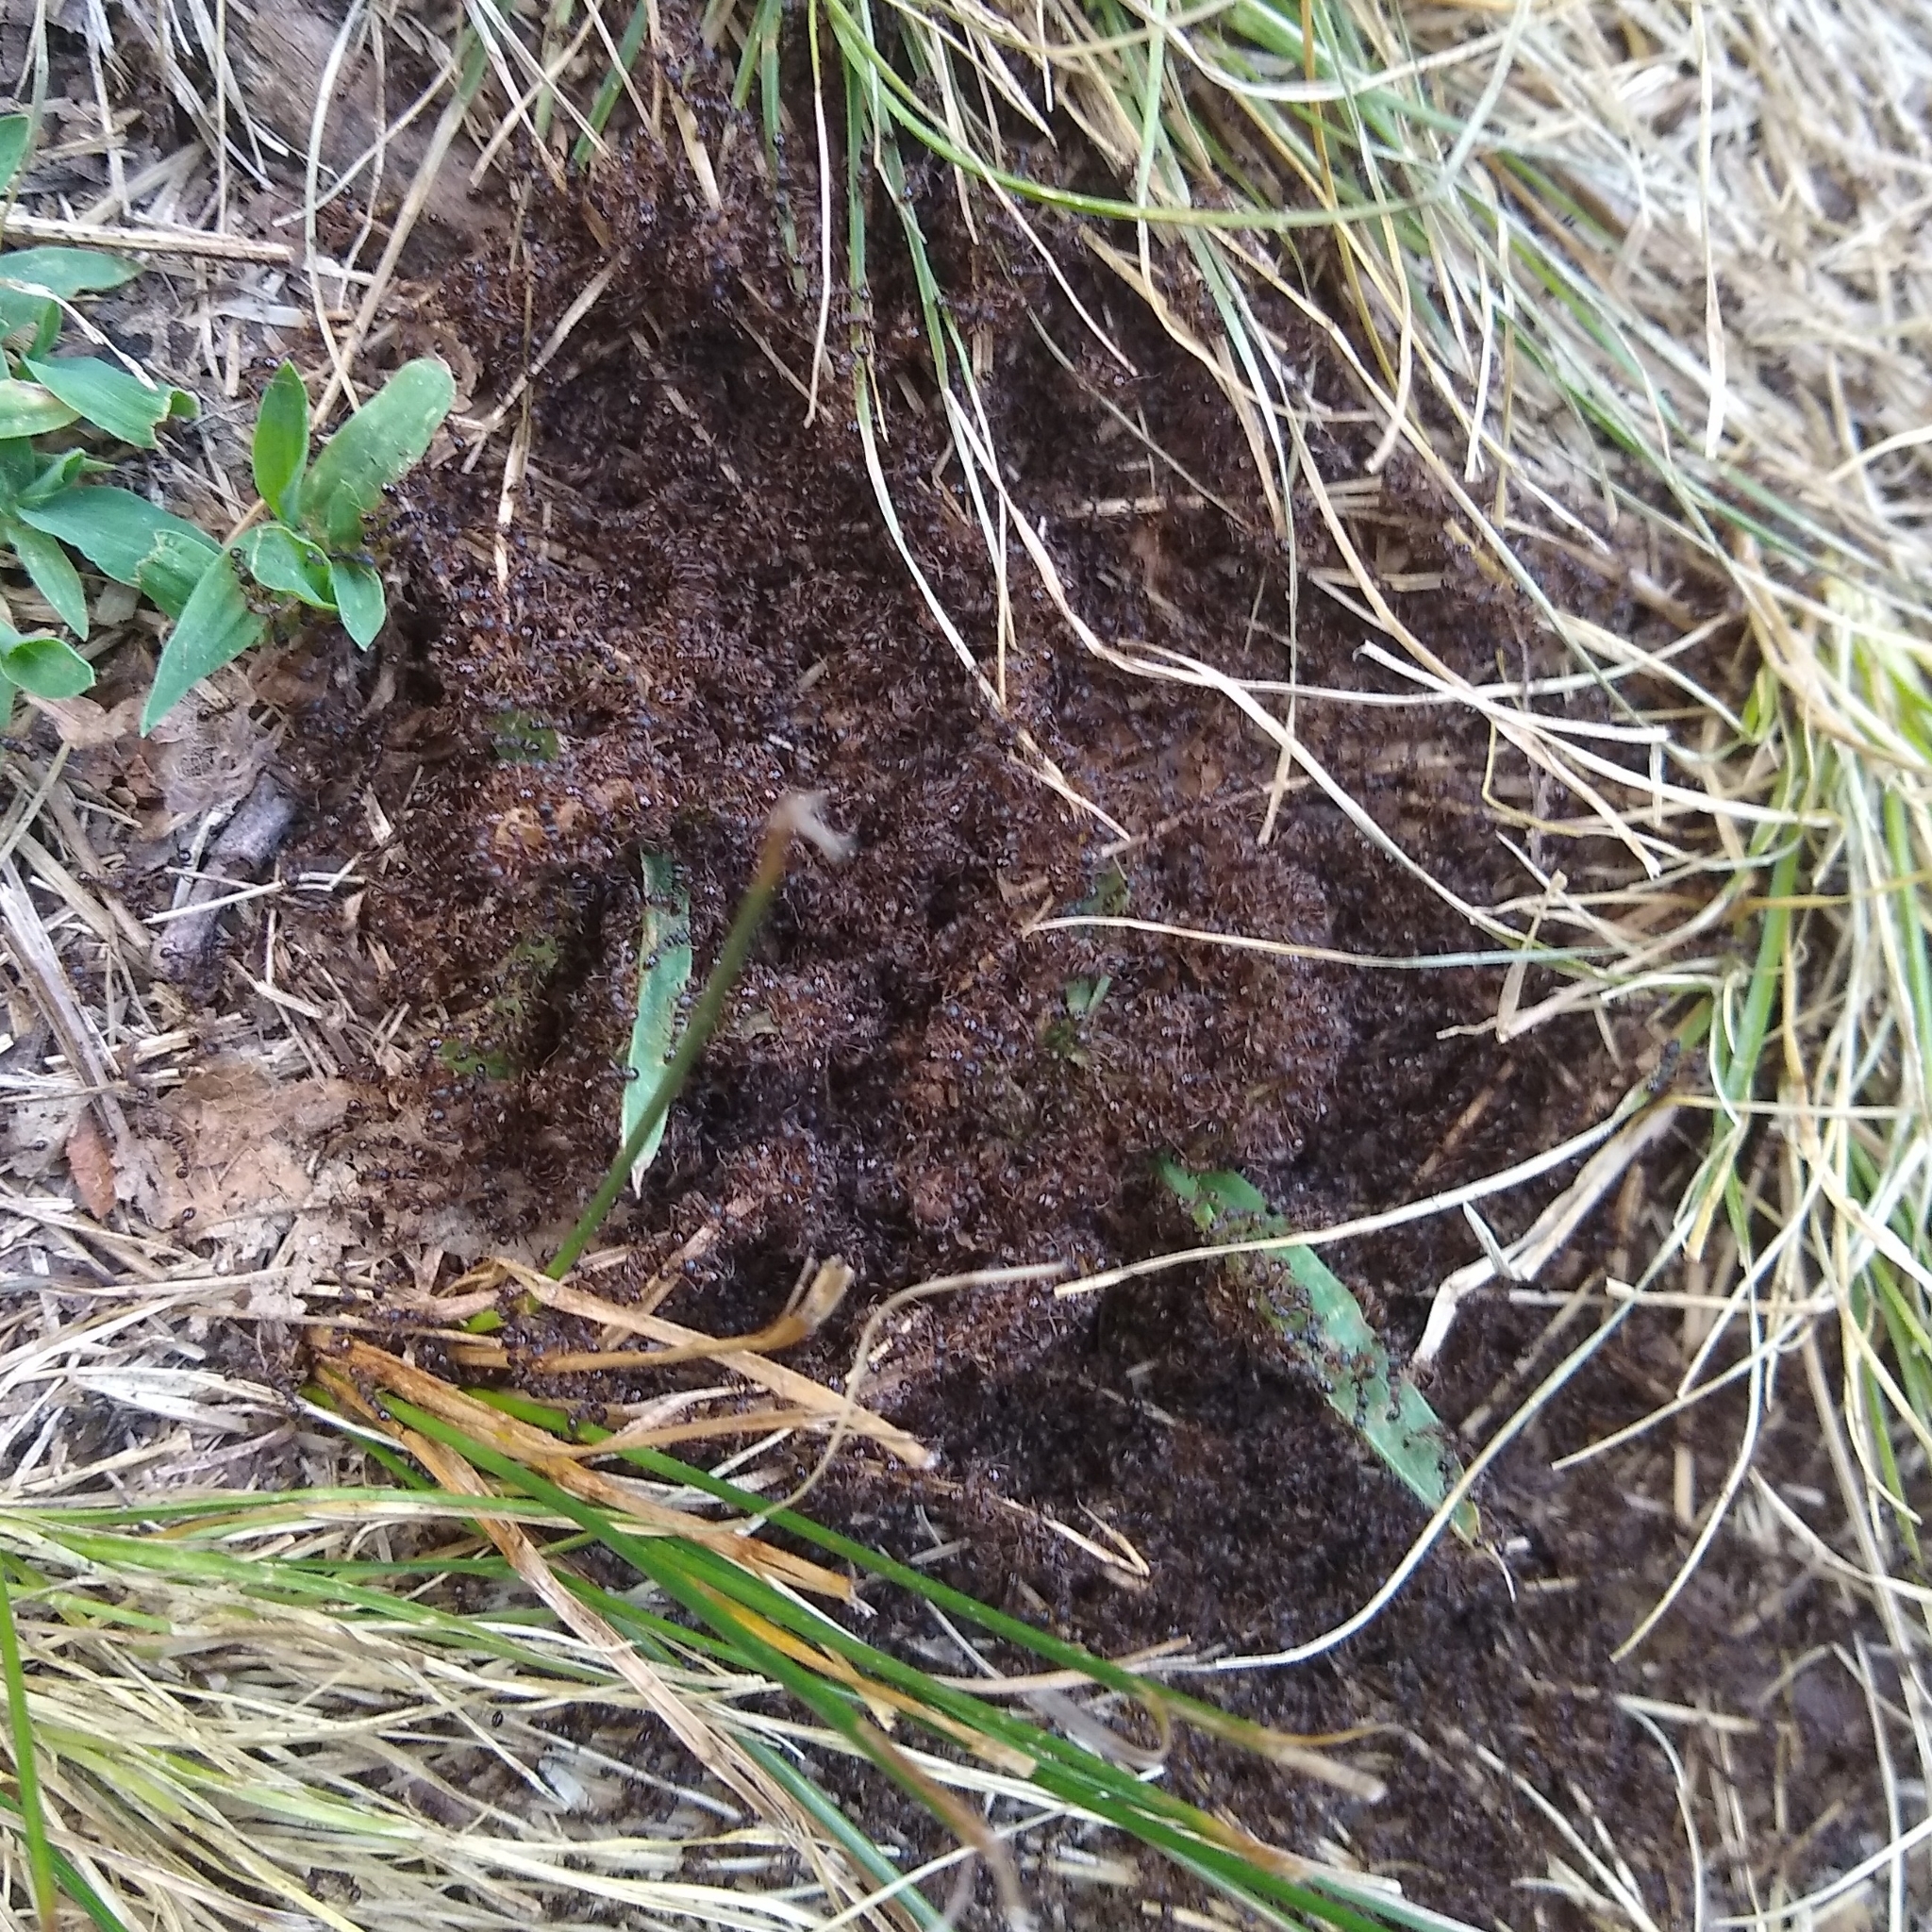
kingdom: Animalia
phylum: Arthropoda
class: Insecta
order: Hymenoptera
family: Formicidae
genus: Tetramorium
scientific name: Tetramorium immigrans
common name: Pavement ant
